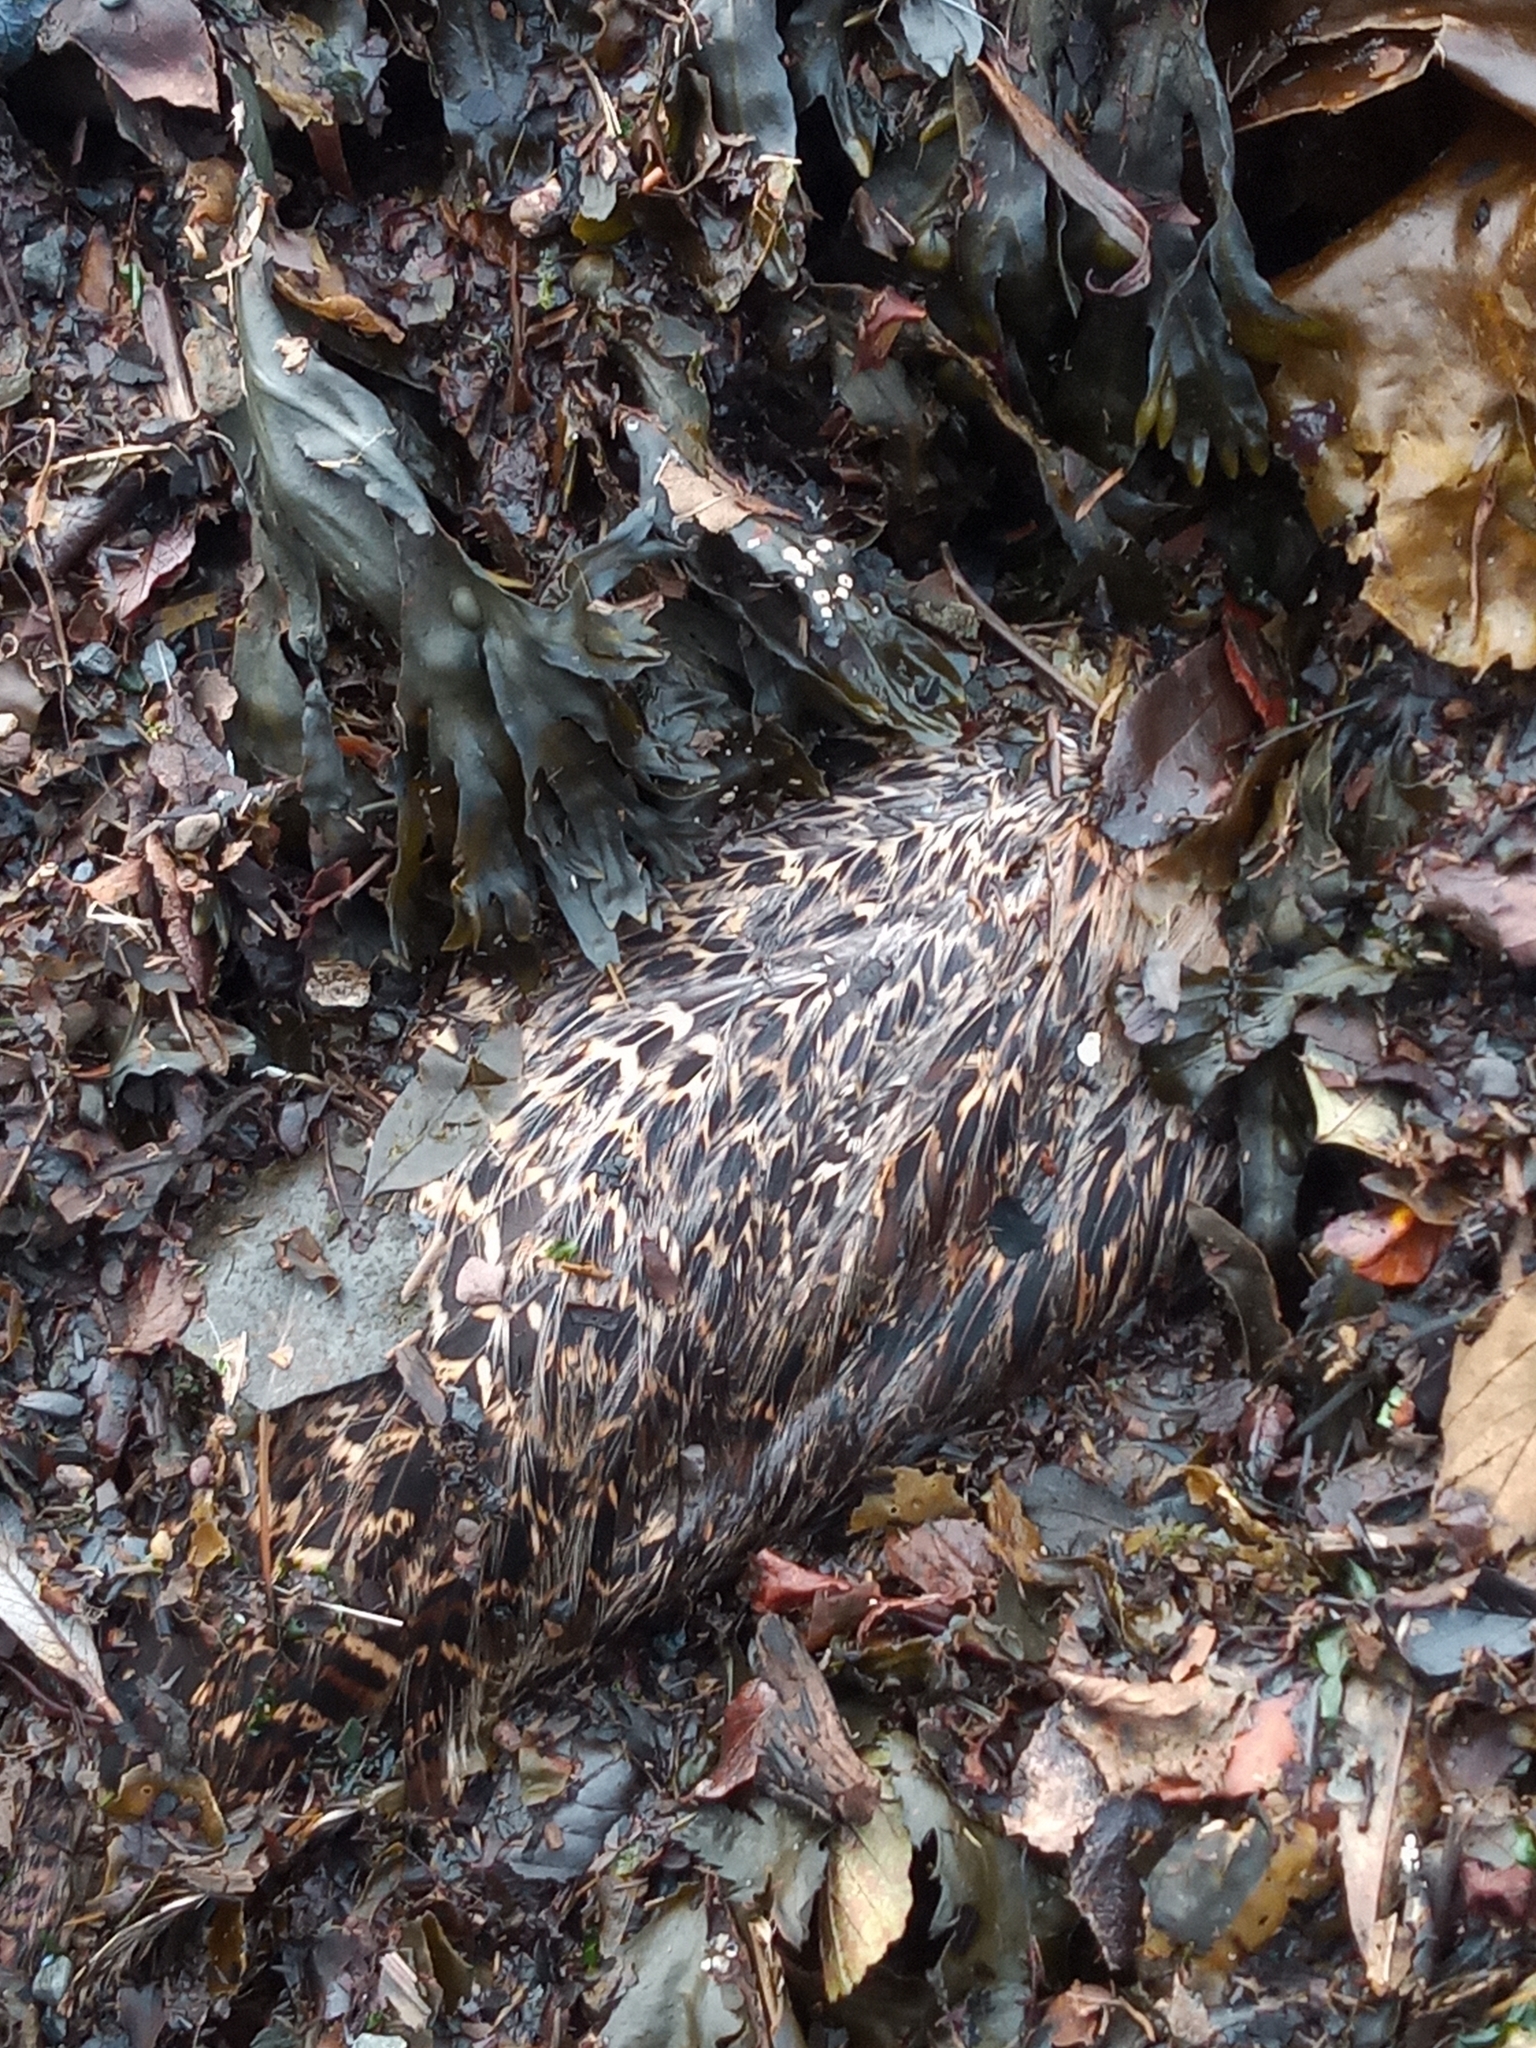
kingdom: Animalia
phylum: Chordata
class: Aves
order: Galliformes
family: Phasianidae
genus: Phasianus
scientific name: Phasianus colchicus
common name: Common pheasant
